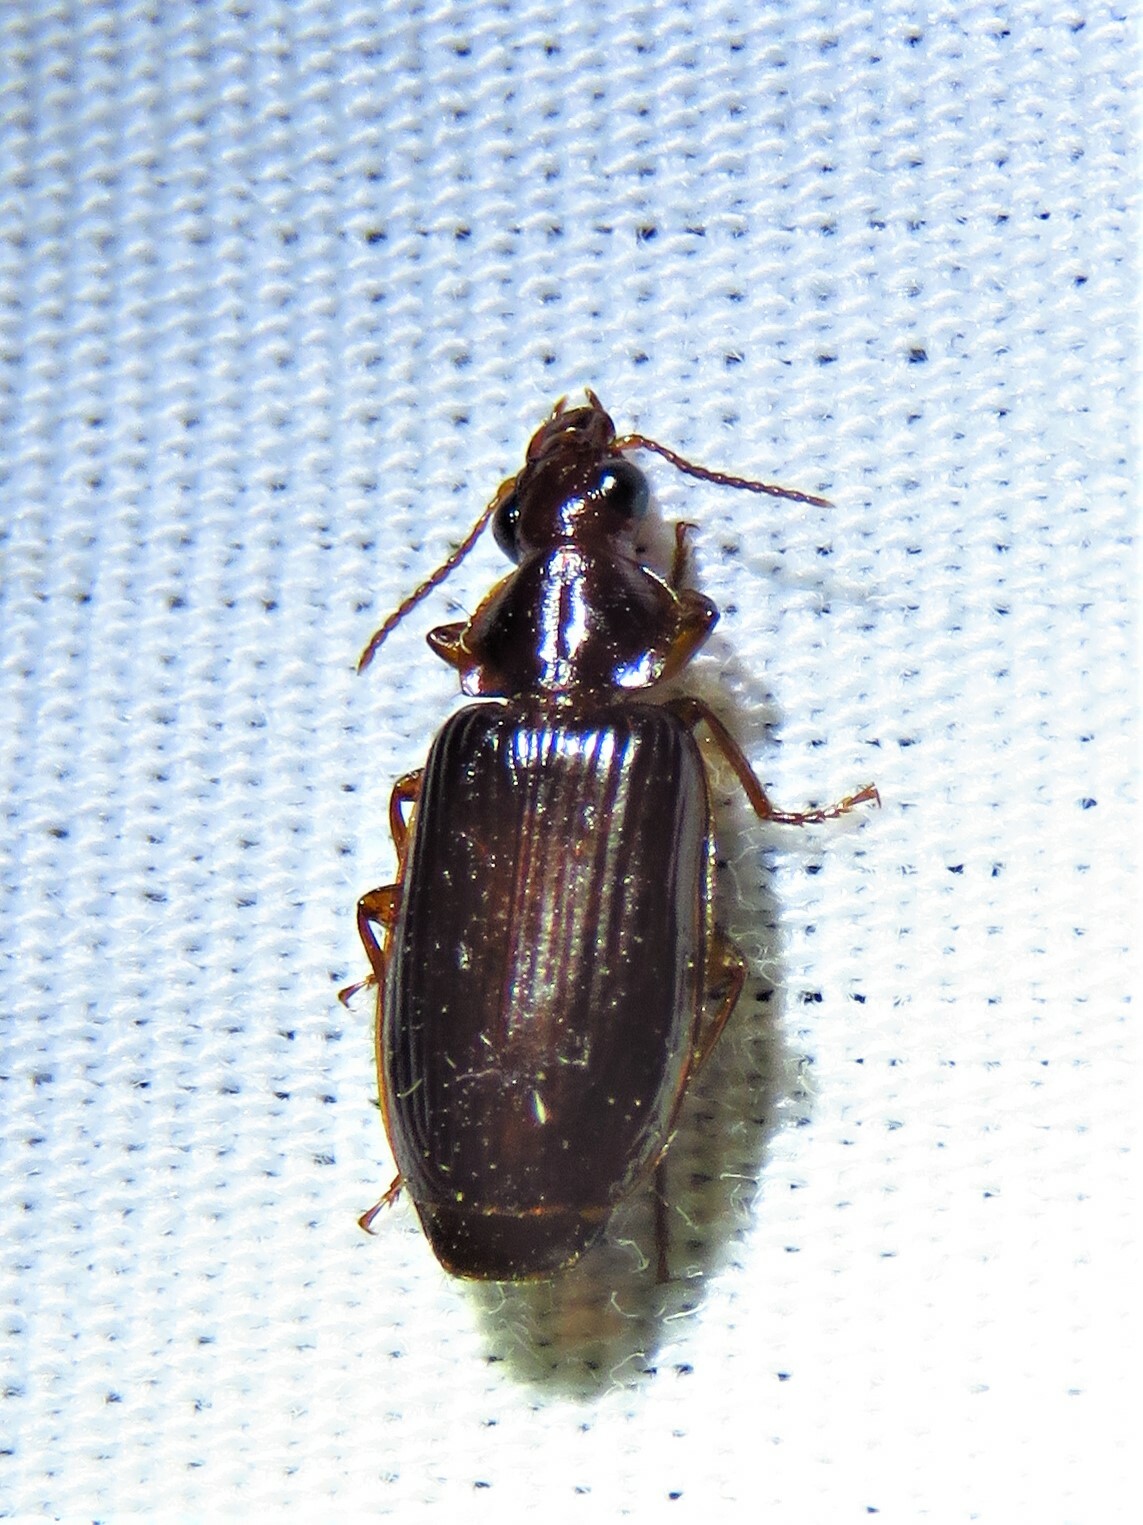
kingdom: Animalia
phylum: Arthropoda
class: Insecta
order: Coleoptera
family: Carabidae
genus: Plochionus
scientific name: Plochionus timidus
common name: Timid harp ground beetle
